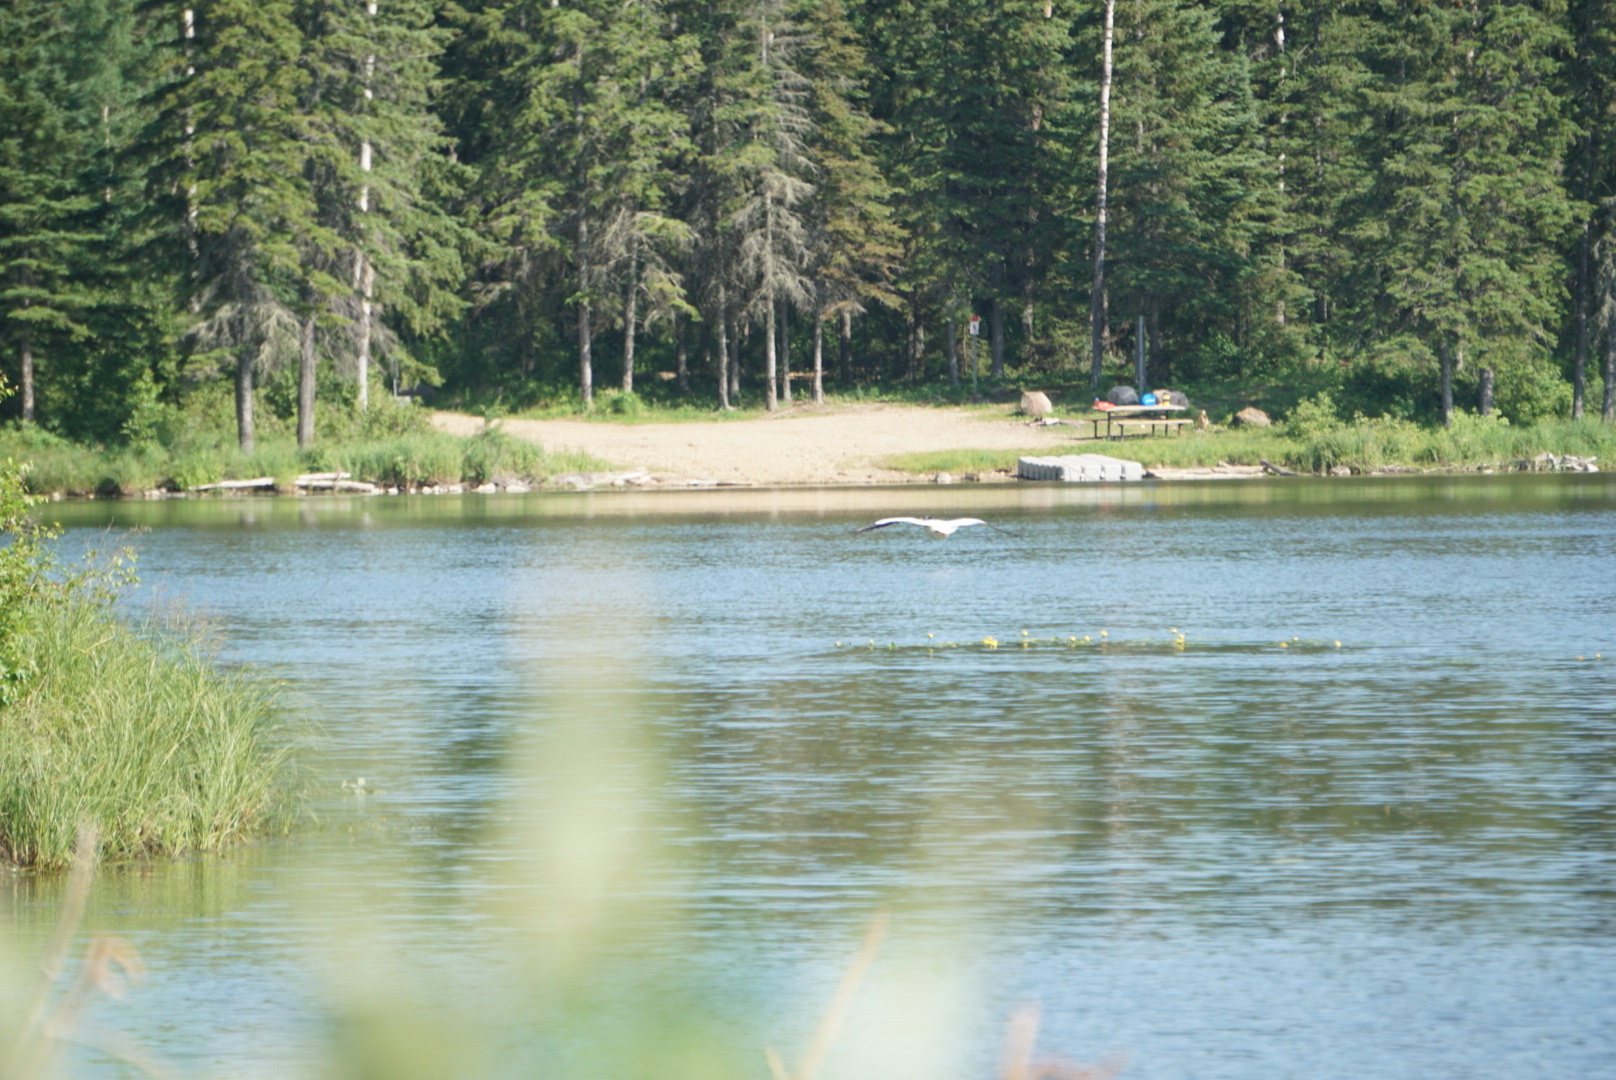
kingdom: Animalia
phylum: Chordata
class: Aves
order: Charadriiformes
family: Laridae
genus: Chroicocephalus
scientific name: Chroicocephalus philadelphia
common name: Bonaparte's gull
